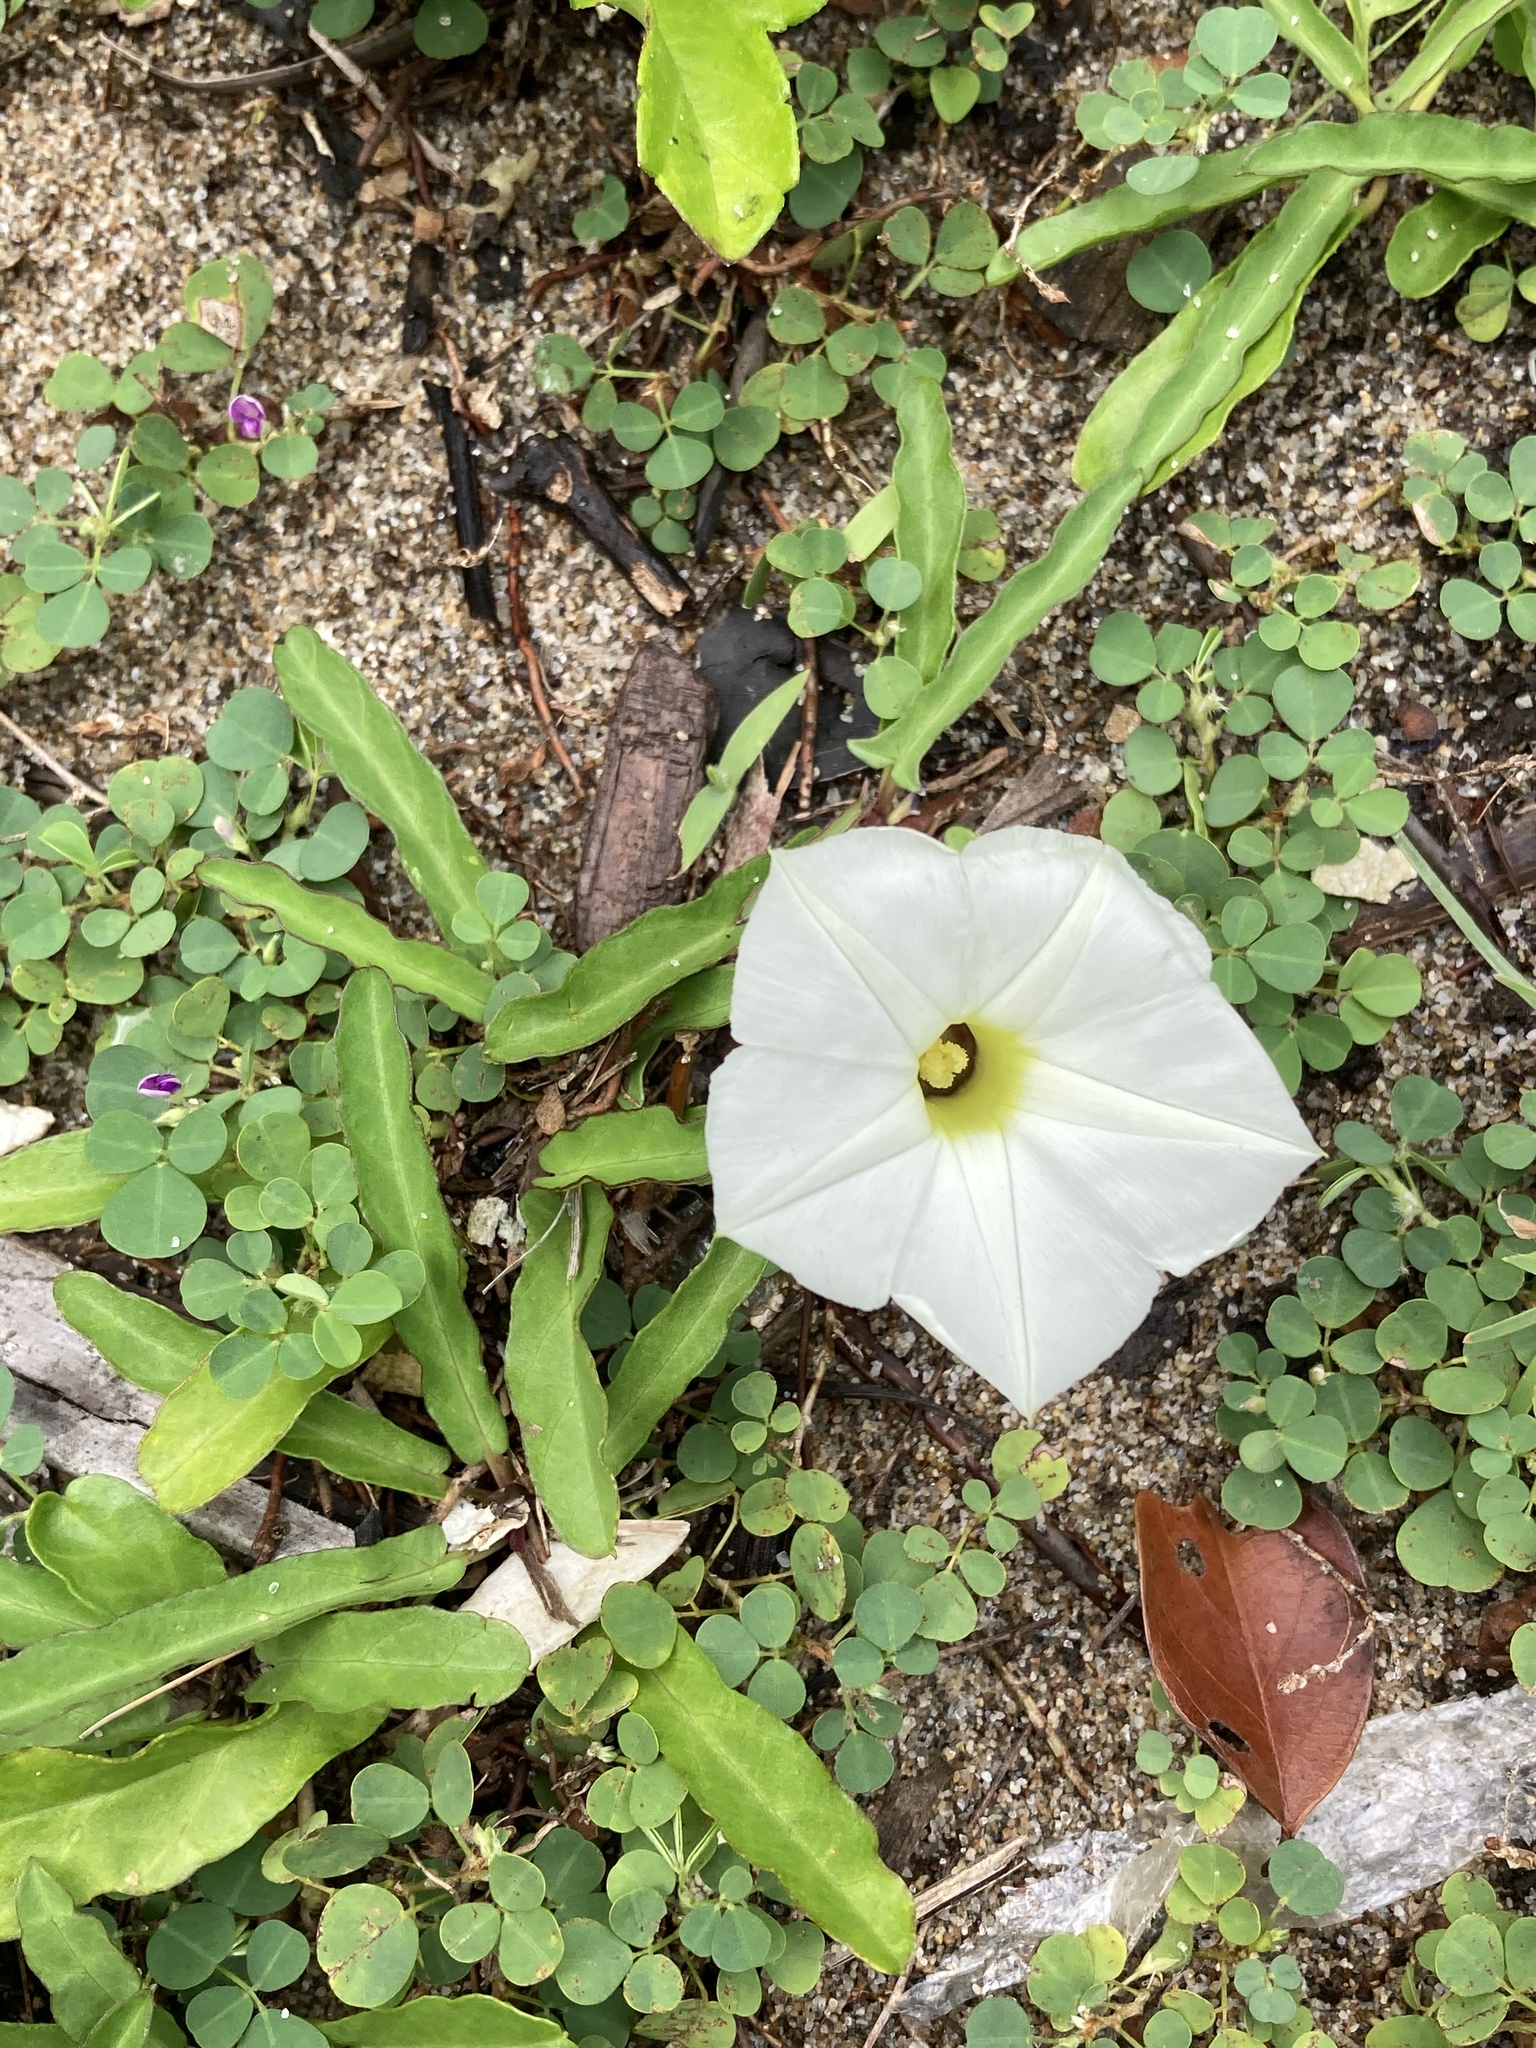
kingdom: Plantae
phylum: Tracheophyta
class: Magnoliopsida
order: Solanales
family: Convolvulaceae
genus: Ipomoea
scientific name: Ipomoea imperati
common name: Fiddle-leaf morning-glory
